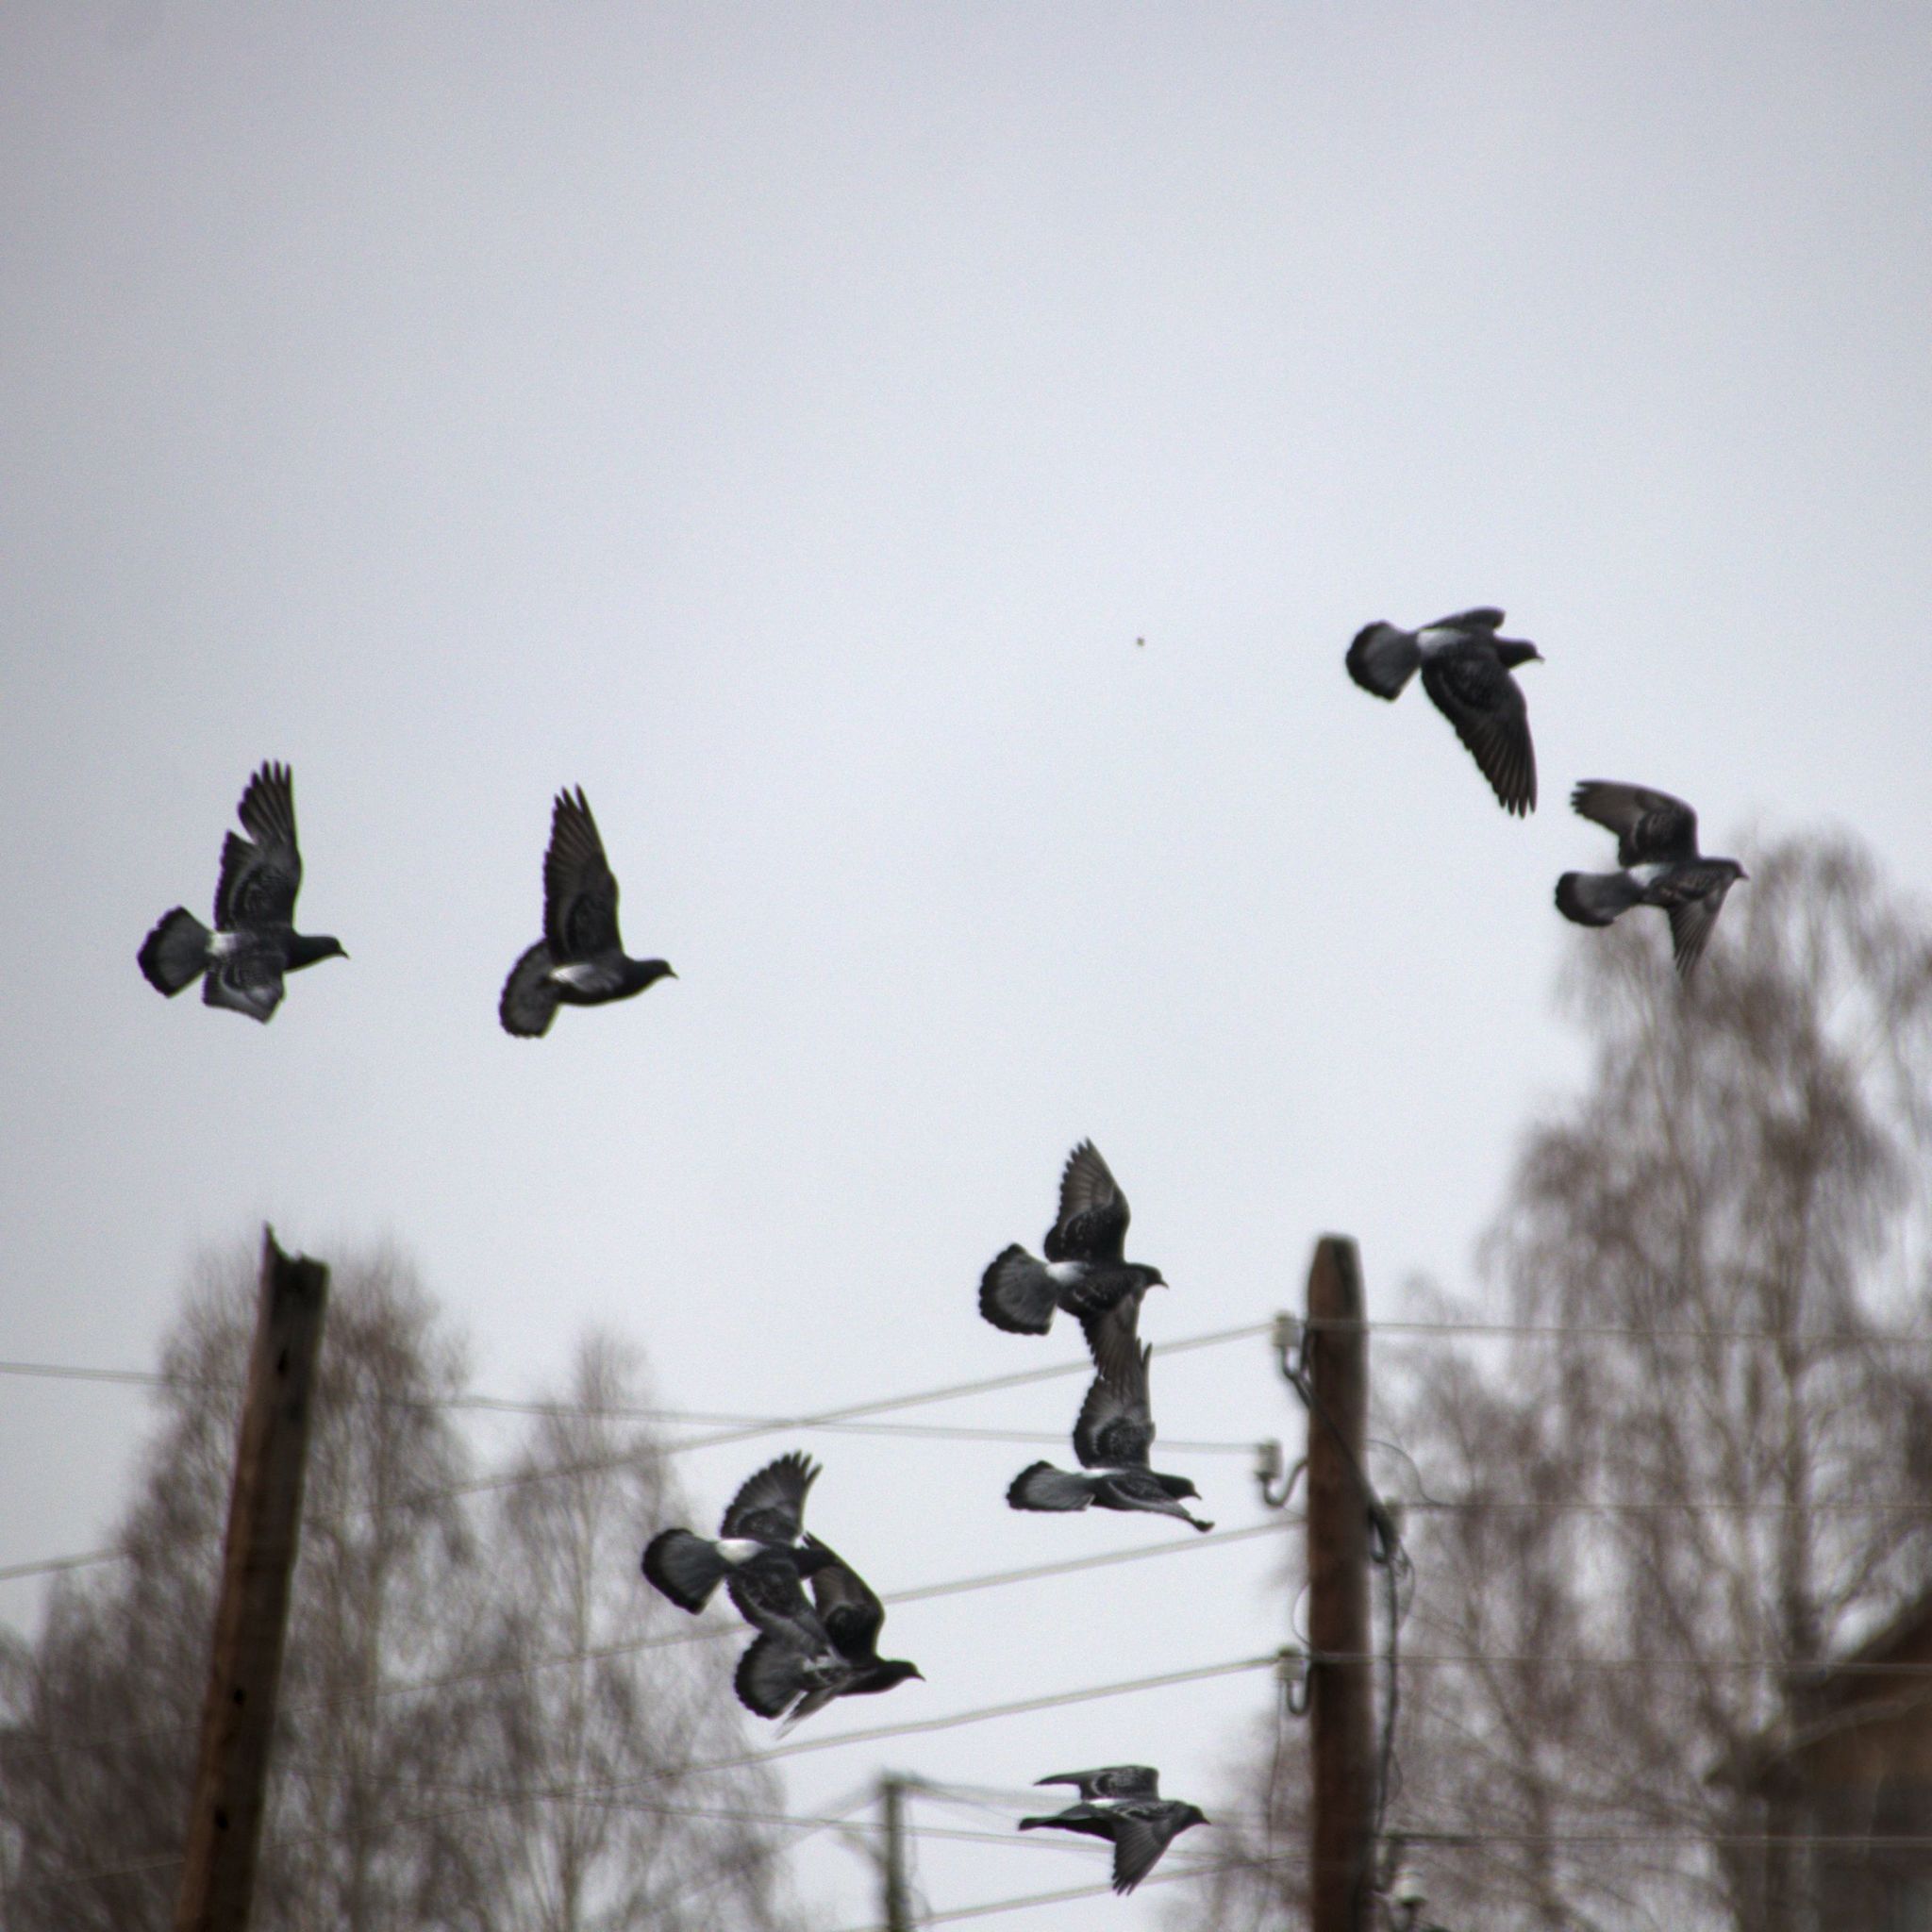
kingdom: Animalia
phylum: Chordata
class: Aves
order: Columbiformes
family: Columbidae
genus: Columba
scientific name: Columba livia
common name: Rock pigeon
